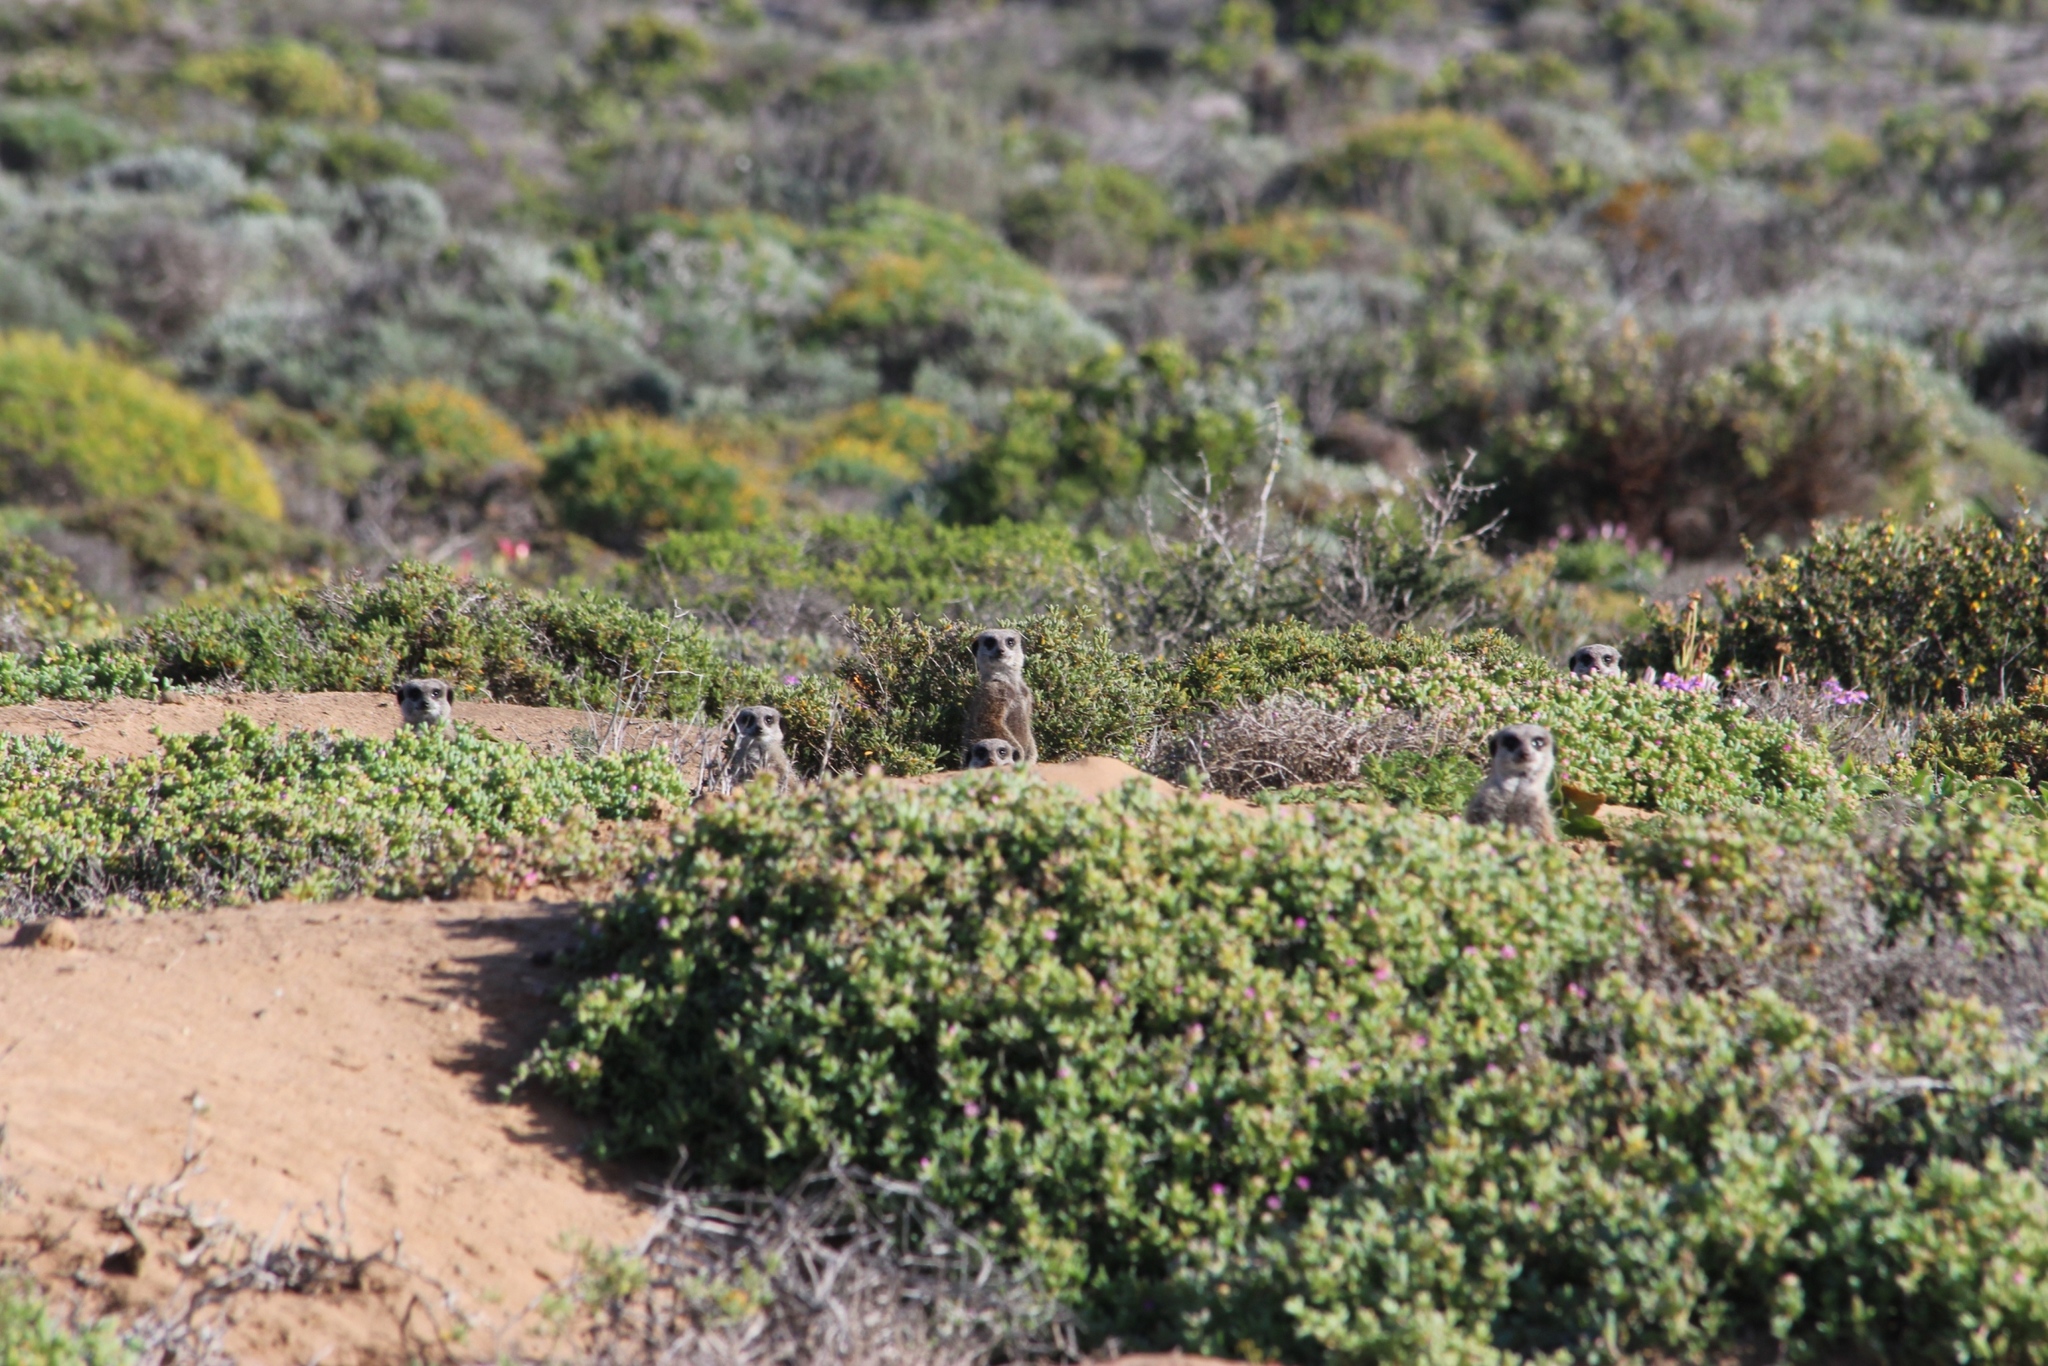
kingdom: Animalia
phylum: Chordata
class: Mammalia
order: Carnivora
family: Herpestidae
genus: Suricata
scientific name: Suricata suricatta
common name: Meerkat
